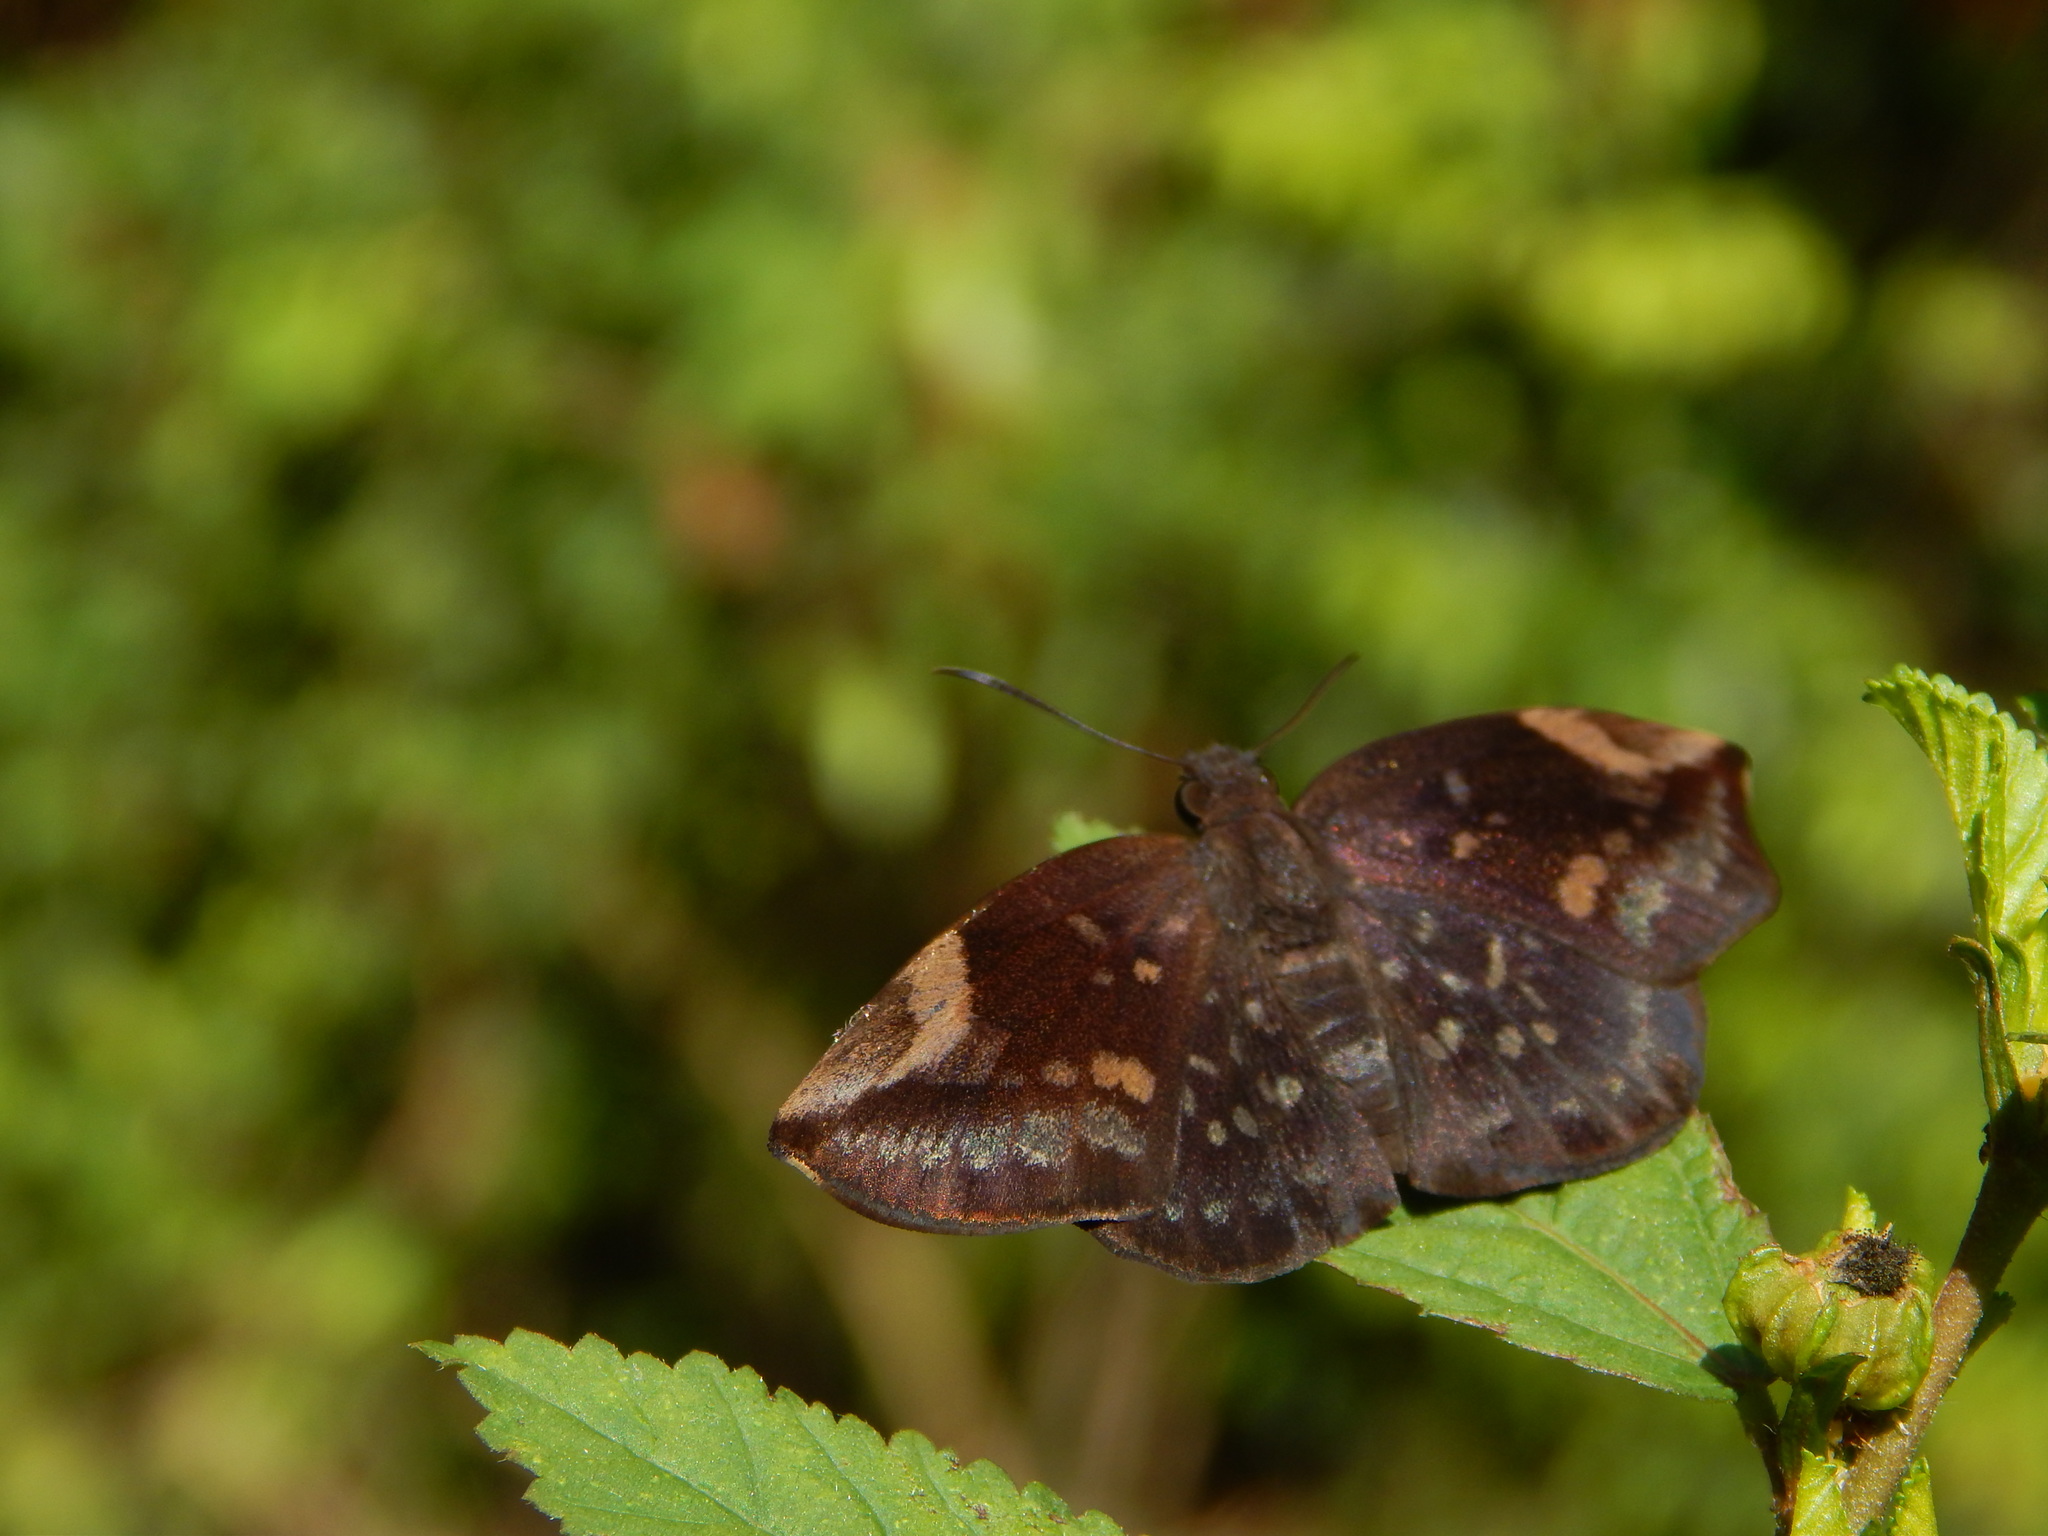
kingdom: Animalia
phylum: Arthropoda
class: Insecta
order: Lepidoptera
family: Hesperiidae
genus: Achlyodes
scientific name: Achlyodes thraso
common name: Sickle-winged skipper
